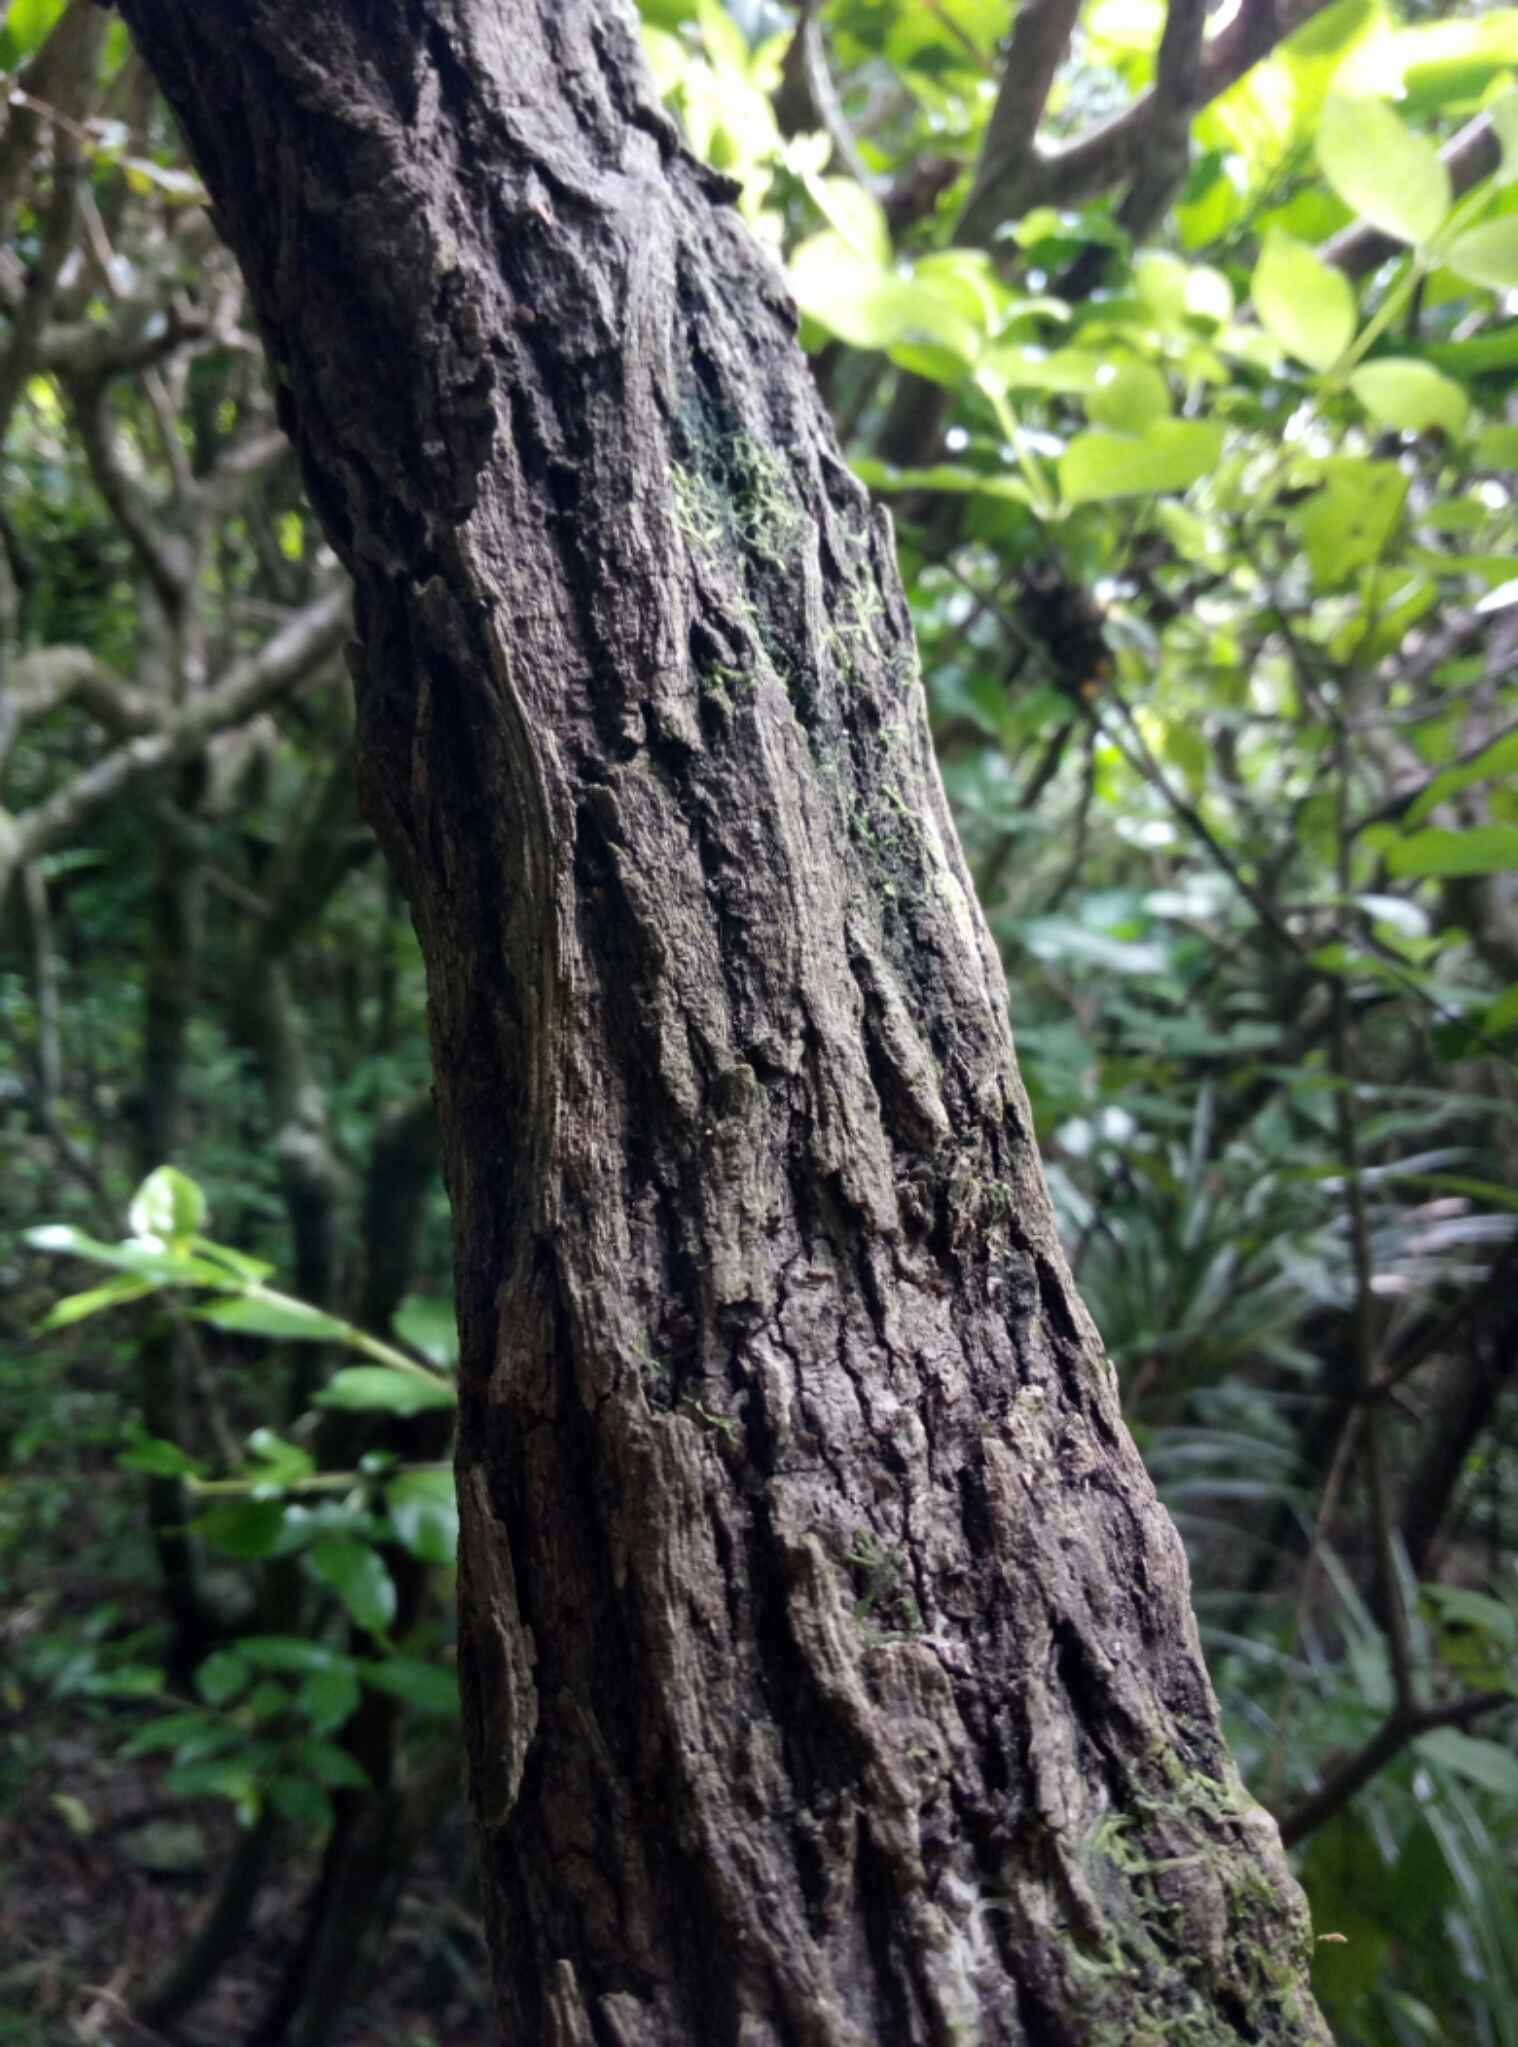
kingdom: Plantae
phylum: Tracheophyta
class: Magnoliopsida
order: Apiales
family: Griseliniaceae
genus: Griselinia
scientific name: Griselinia lucida
